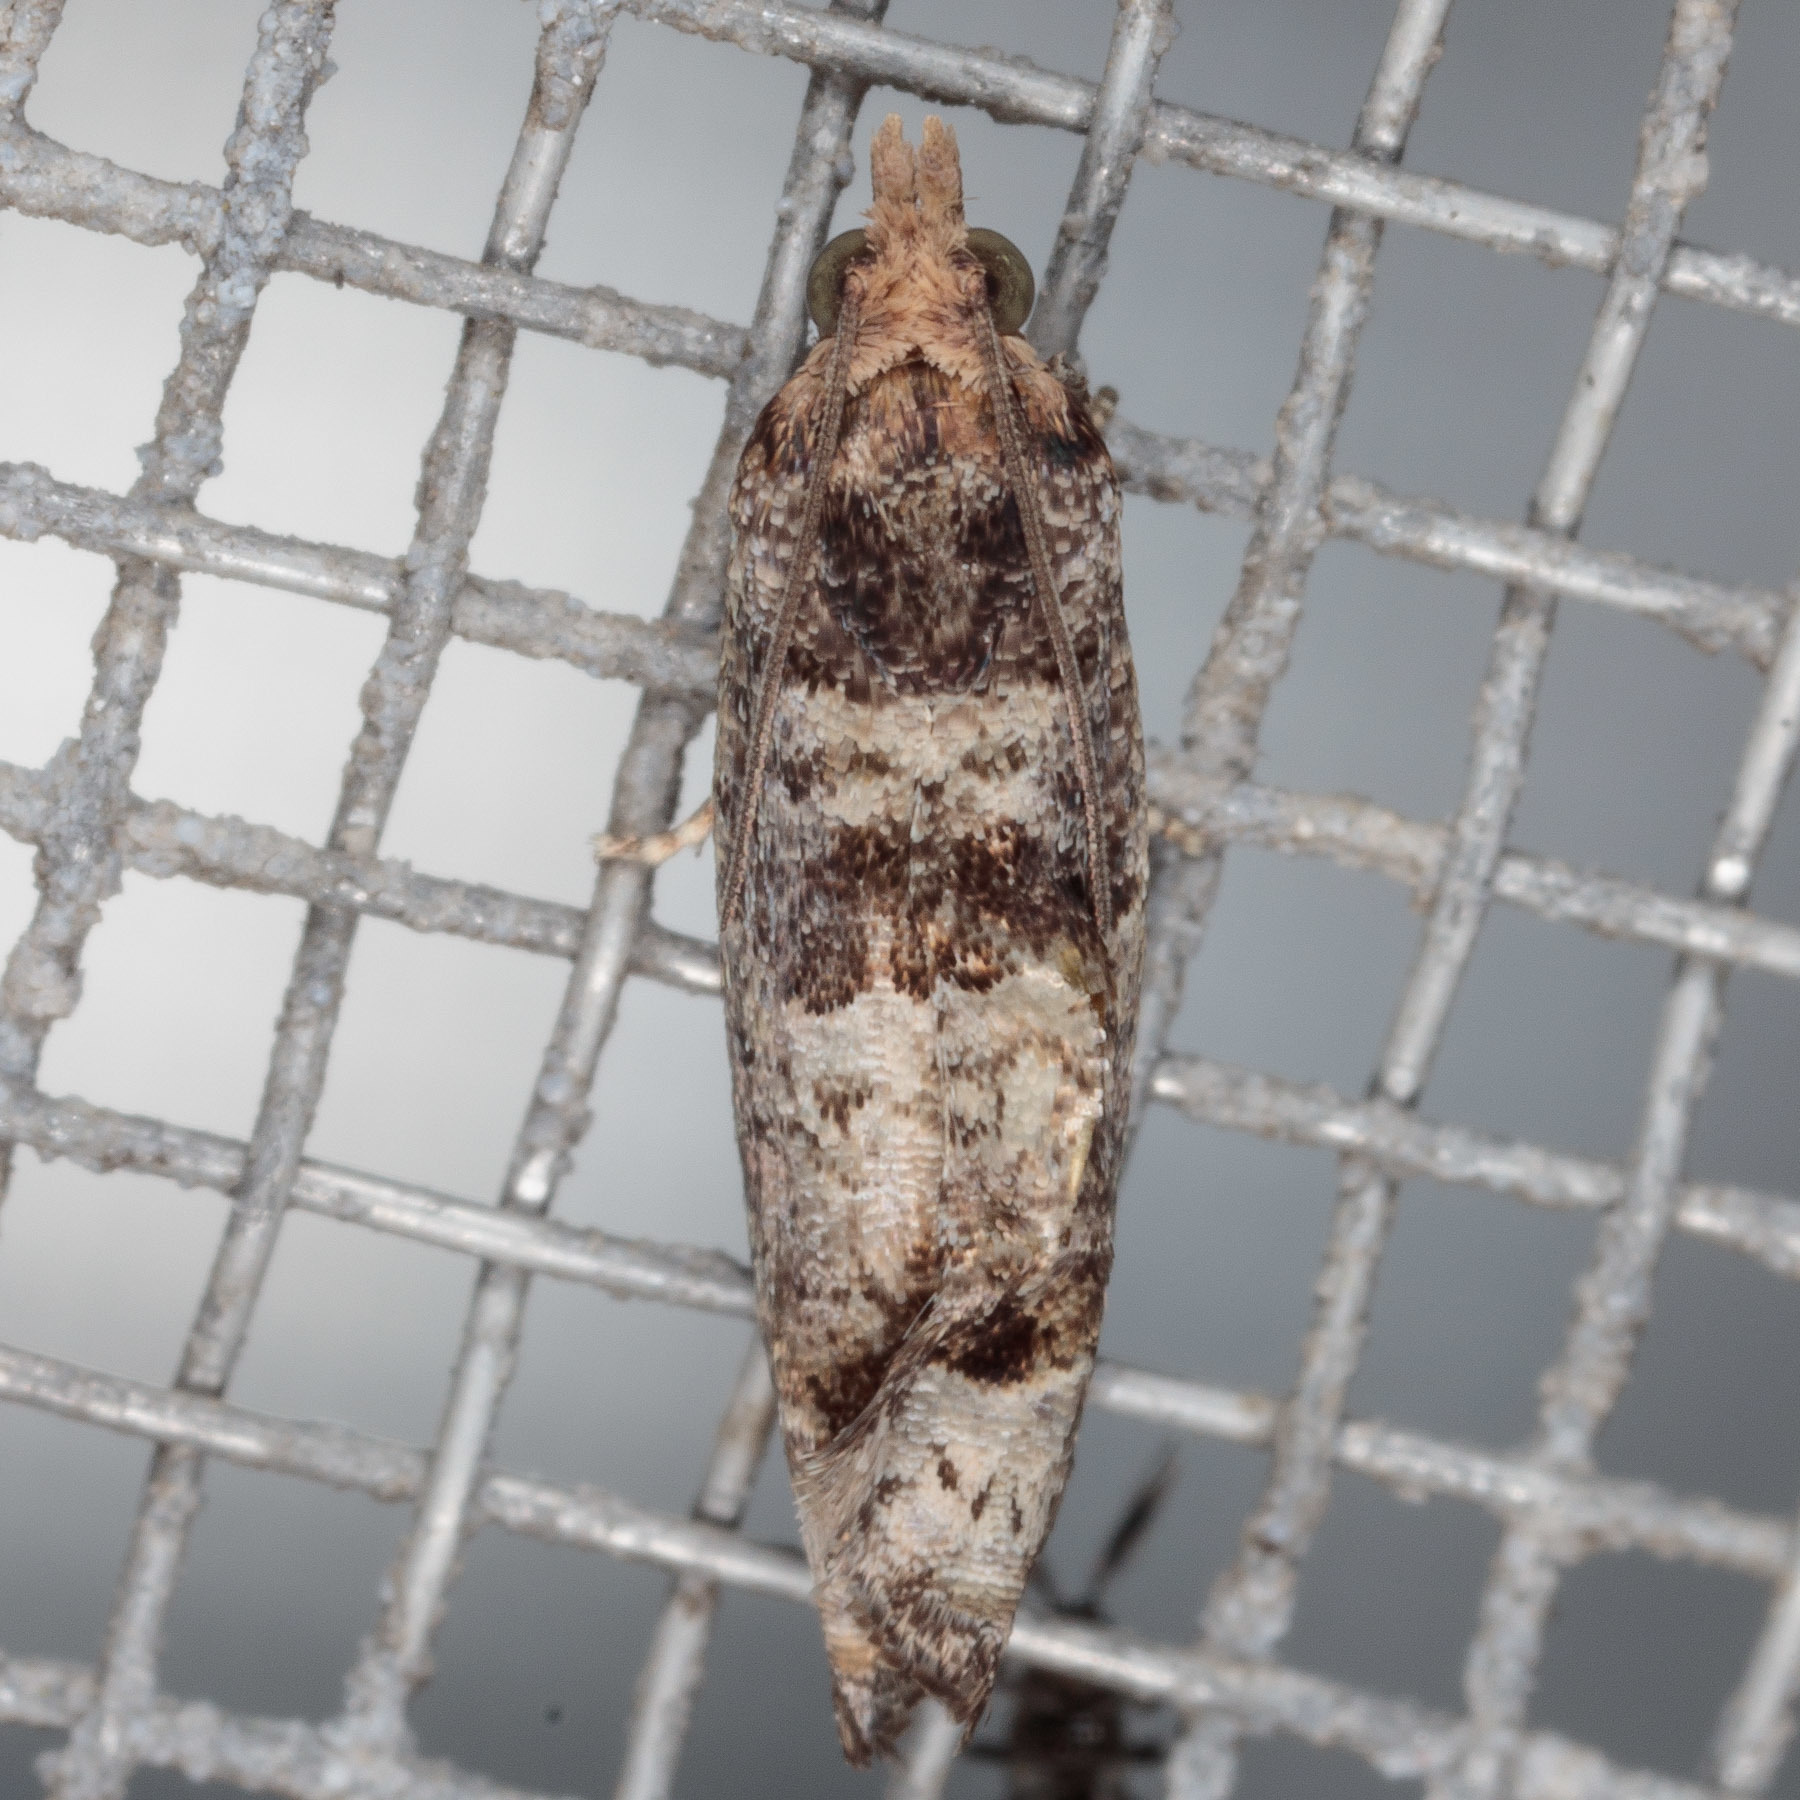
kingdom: Animalia
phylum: Arthropoda
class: Insecta
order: Lepidoptera
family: Tortricidae
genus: Pseudexentera
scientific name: Pseudexentera knudsoni
